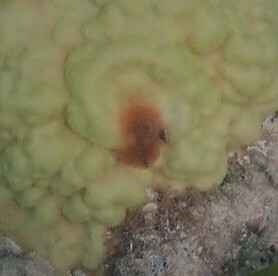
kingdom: Animalia
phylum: Annelida
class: Polychaeta
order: Sabellida
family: Serpulidae
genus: Spirobranchus
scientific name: Spirobranchus giganteus
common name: Christmas tree worm
